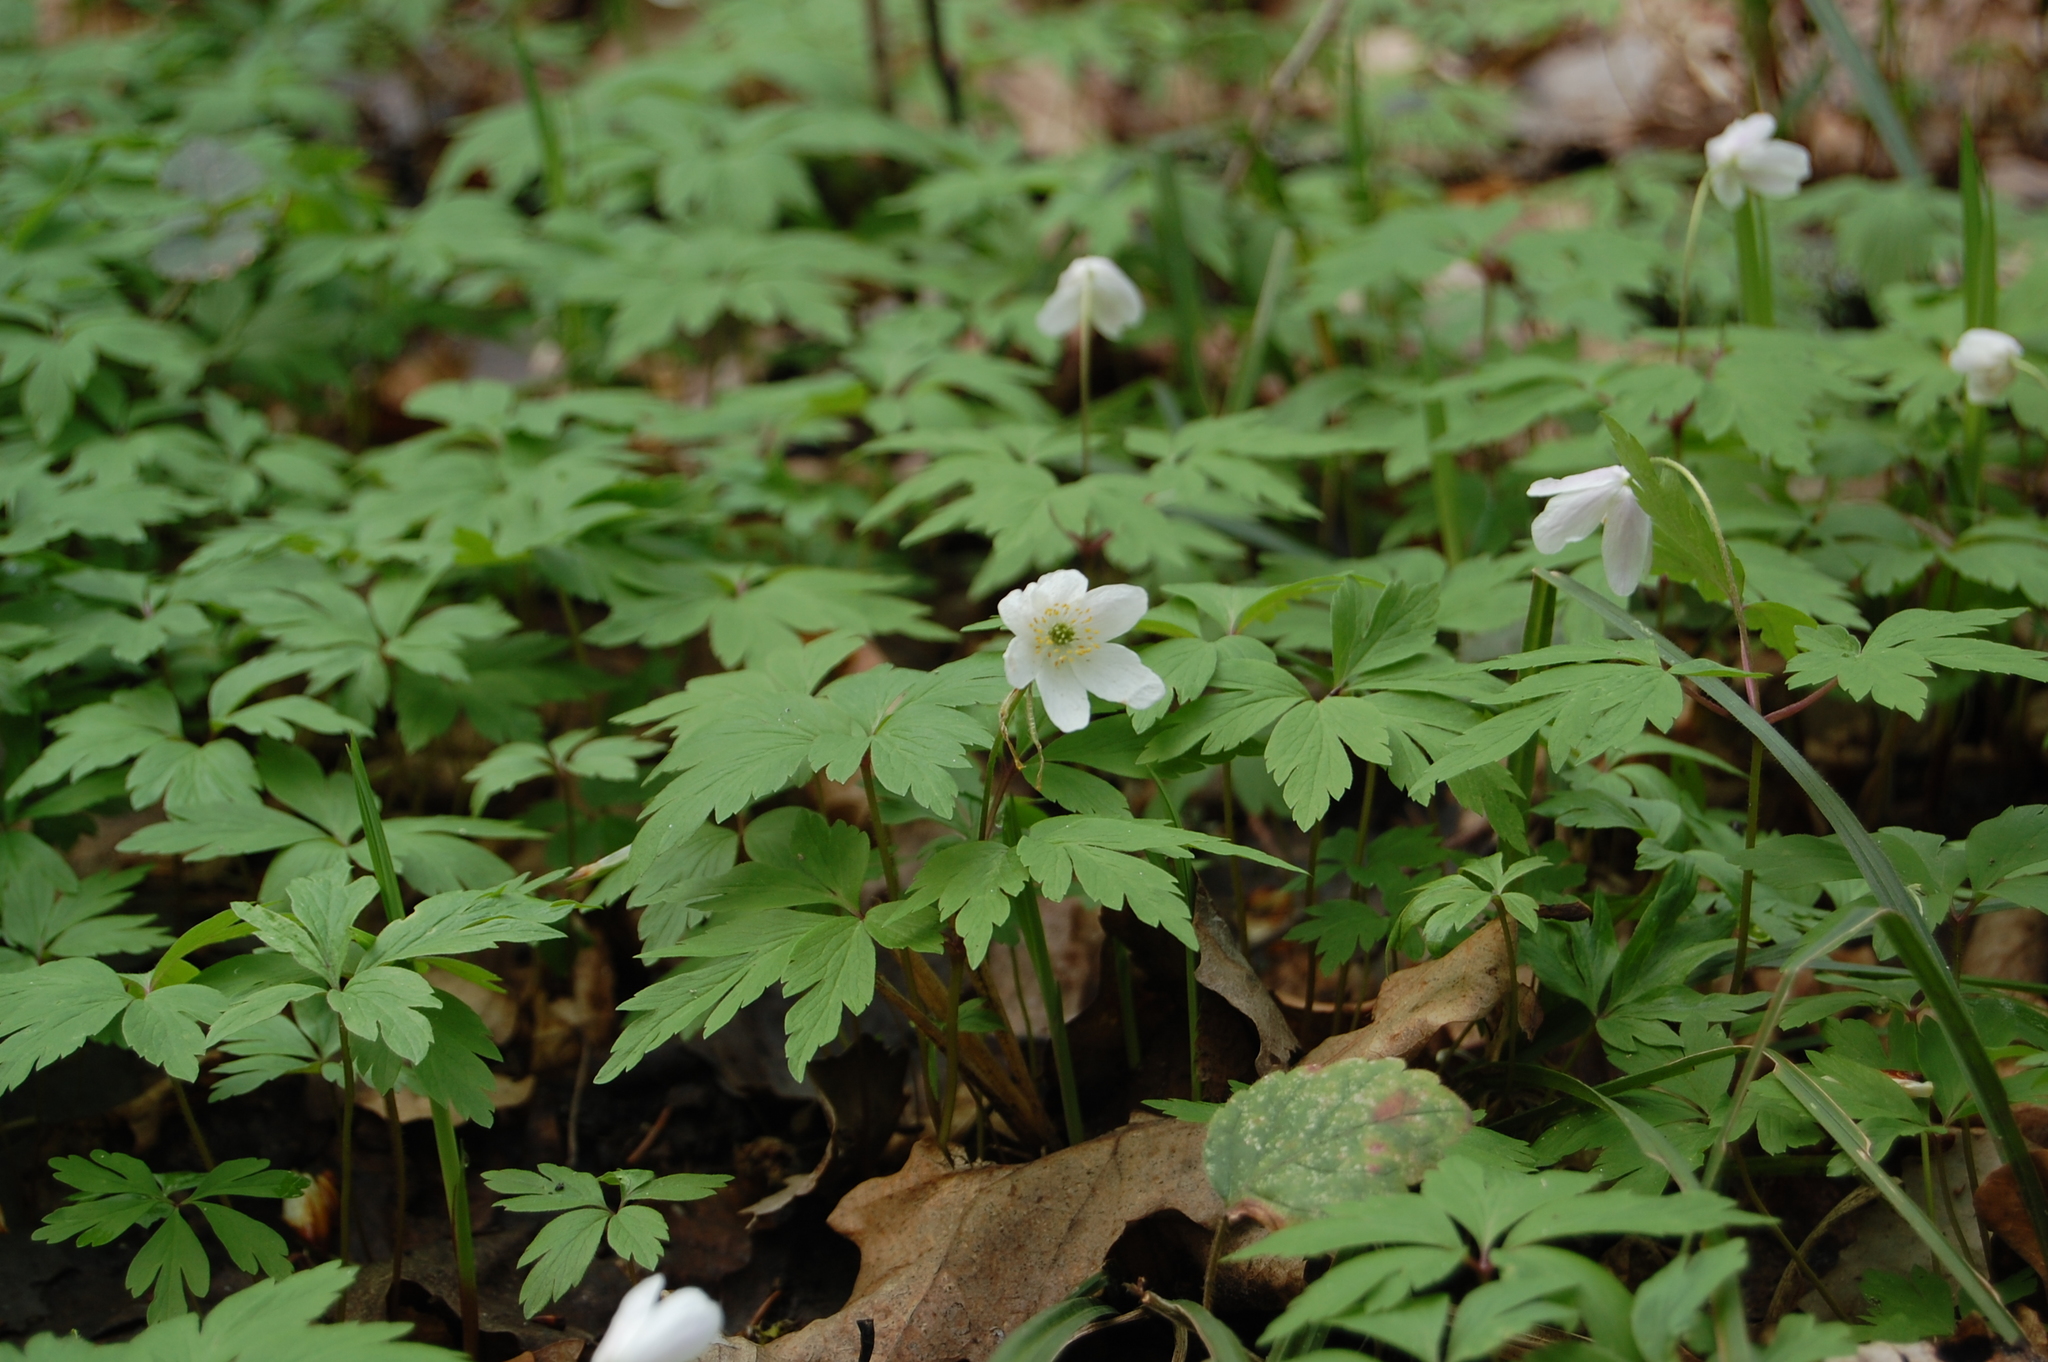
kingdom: Plantae
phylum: Tracheophyta
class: Magnoliopsida
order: Ranunculales
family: Ranunculaceae
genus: Anemone
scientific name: Anemone nemorosa
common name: Wood anemone
